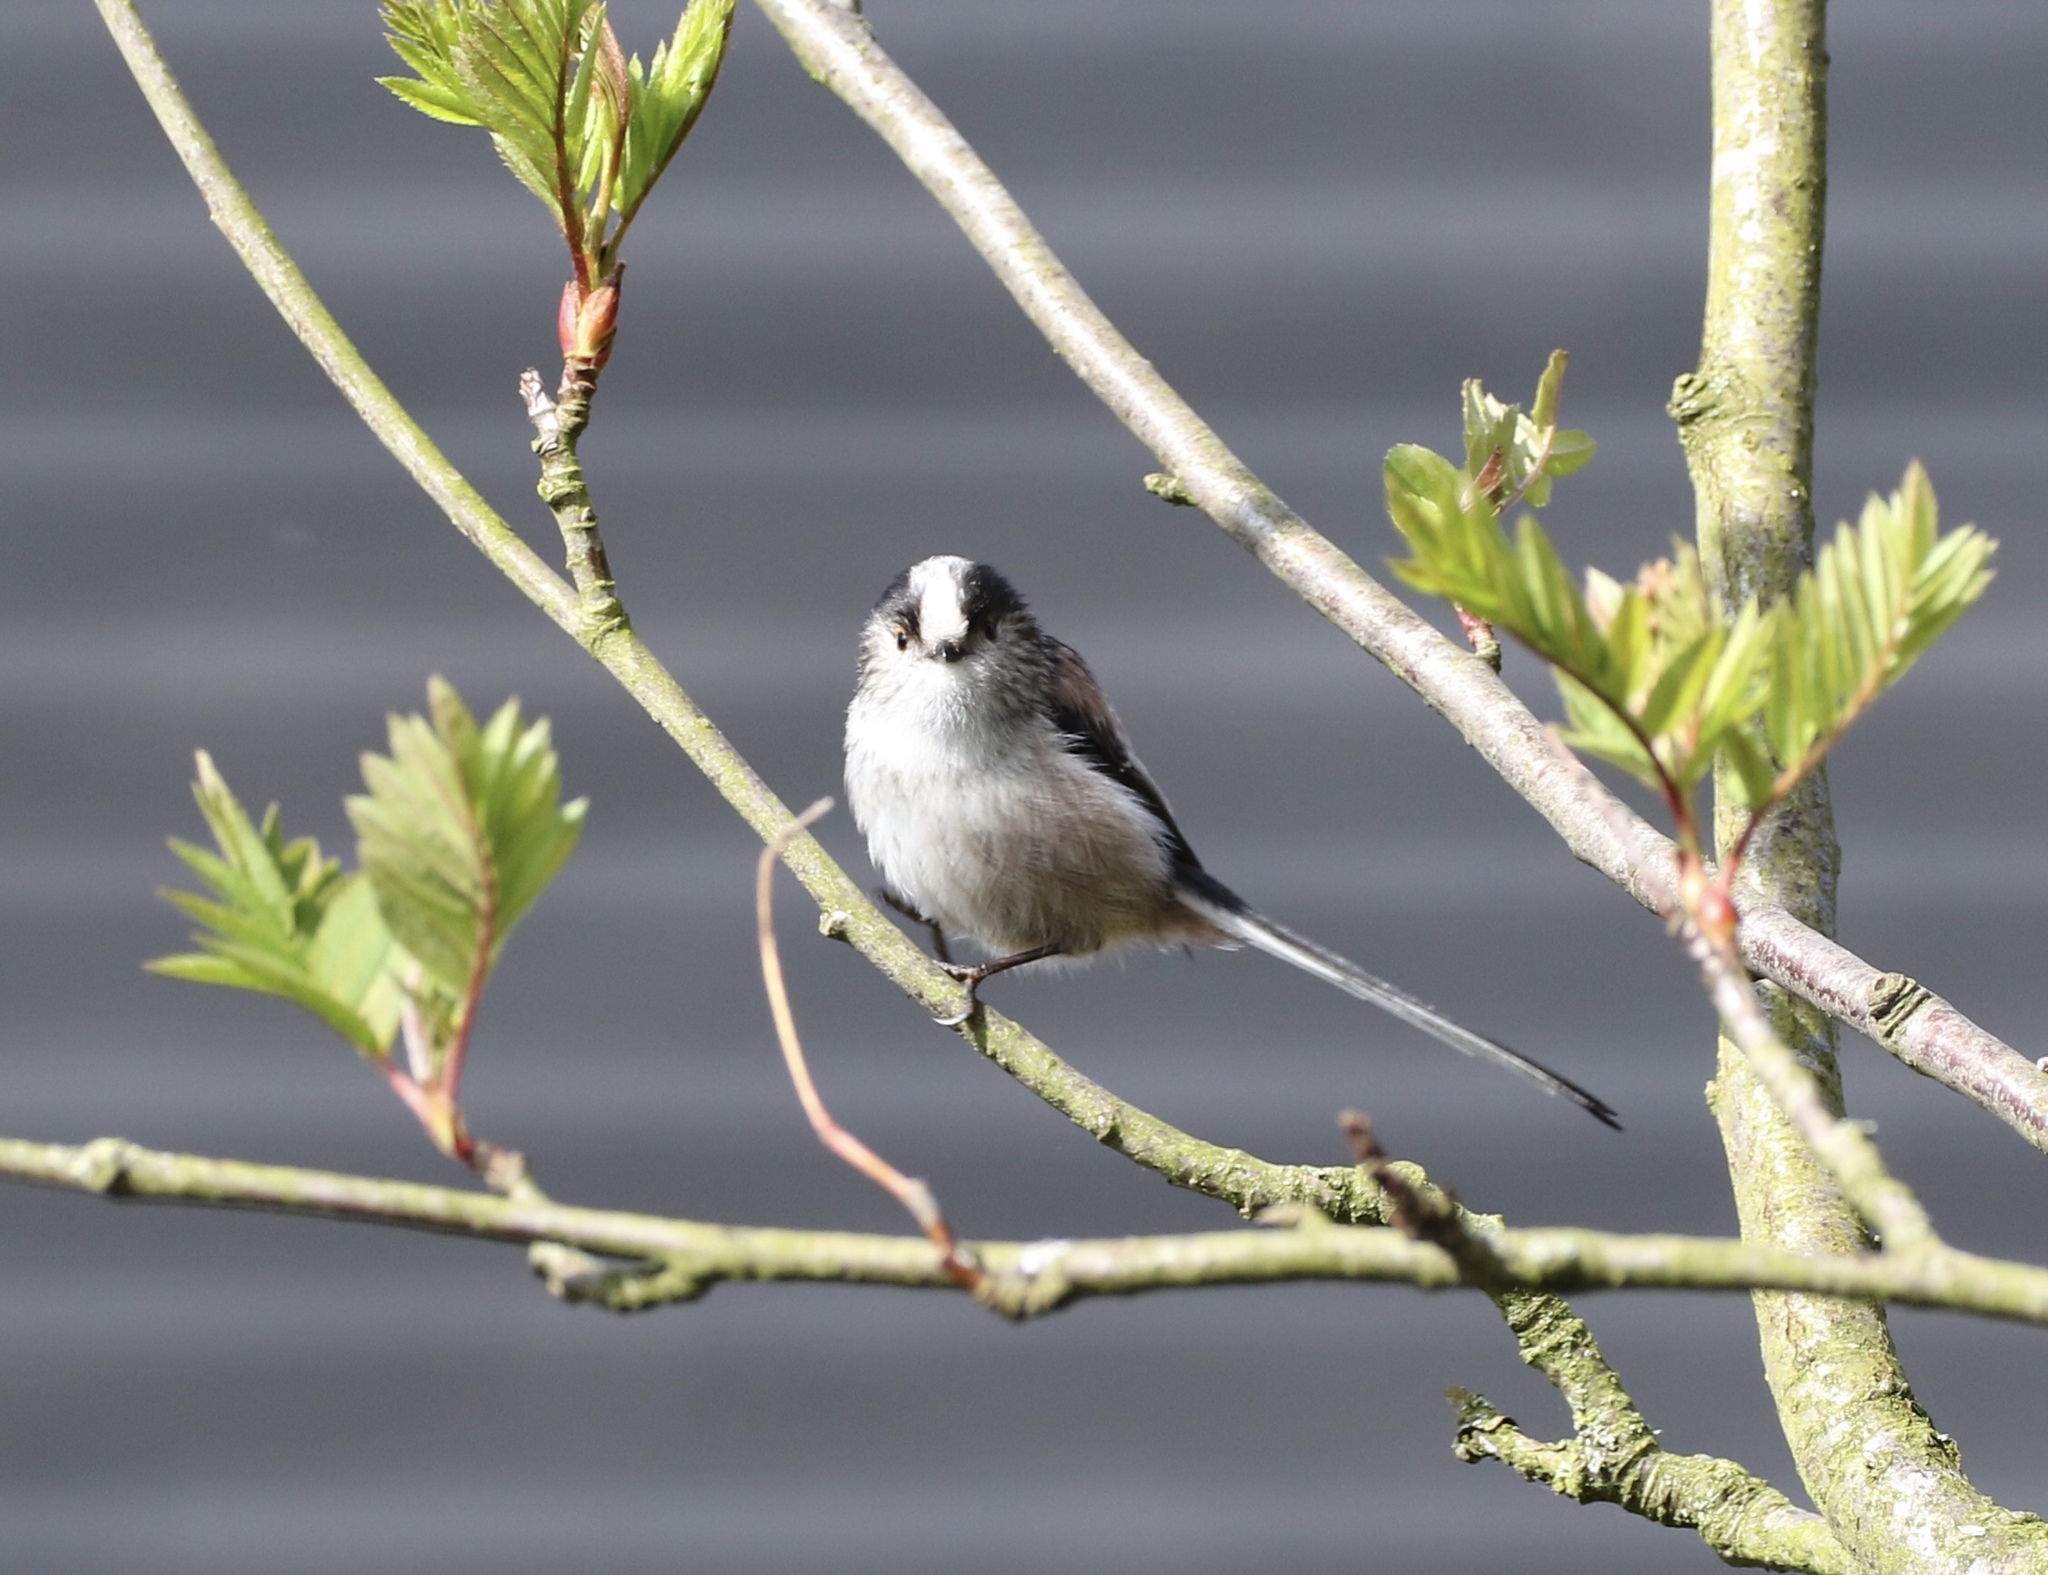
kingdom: Animalia
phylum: Chordata
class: Aves
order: Passeriformes
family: Aegithalidae
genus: Aegithalos
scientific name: Aegithalos caudatus
